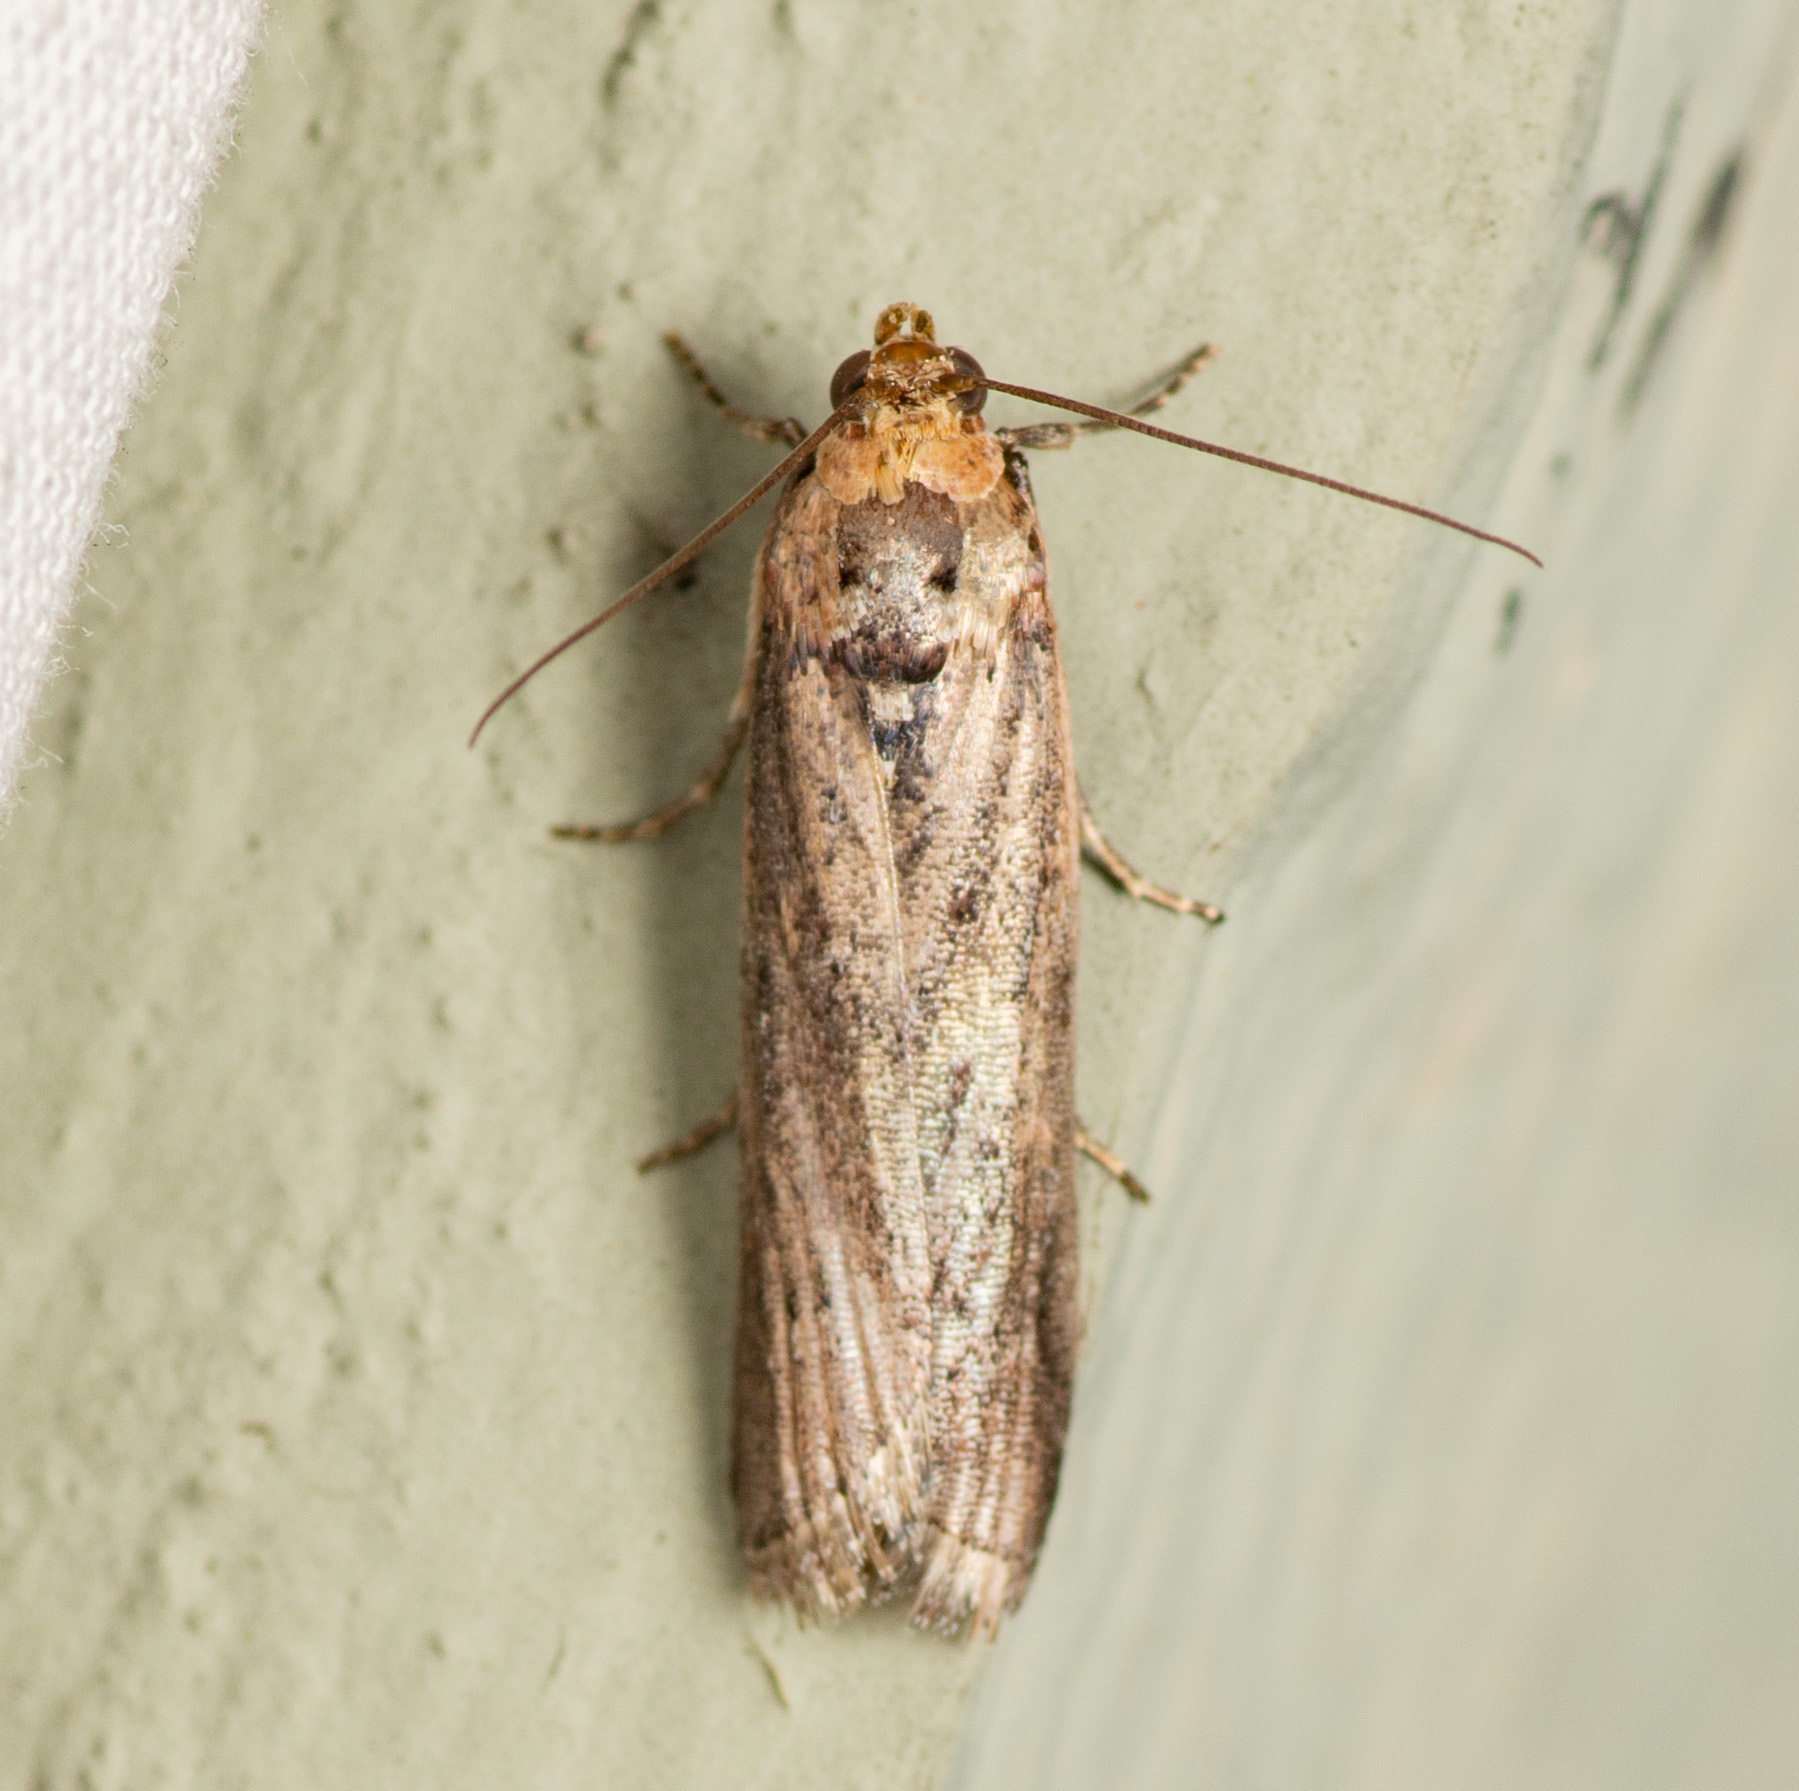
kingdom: Animalia
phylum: Arthropoda
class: Insecta
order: Lepidoptera
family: Pyralidae
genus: Adelphia
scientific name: Adelphia petrella
